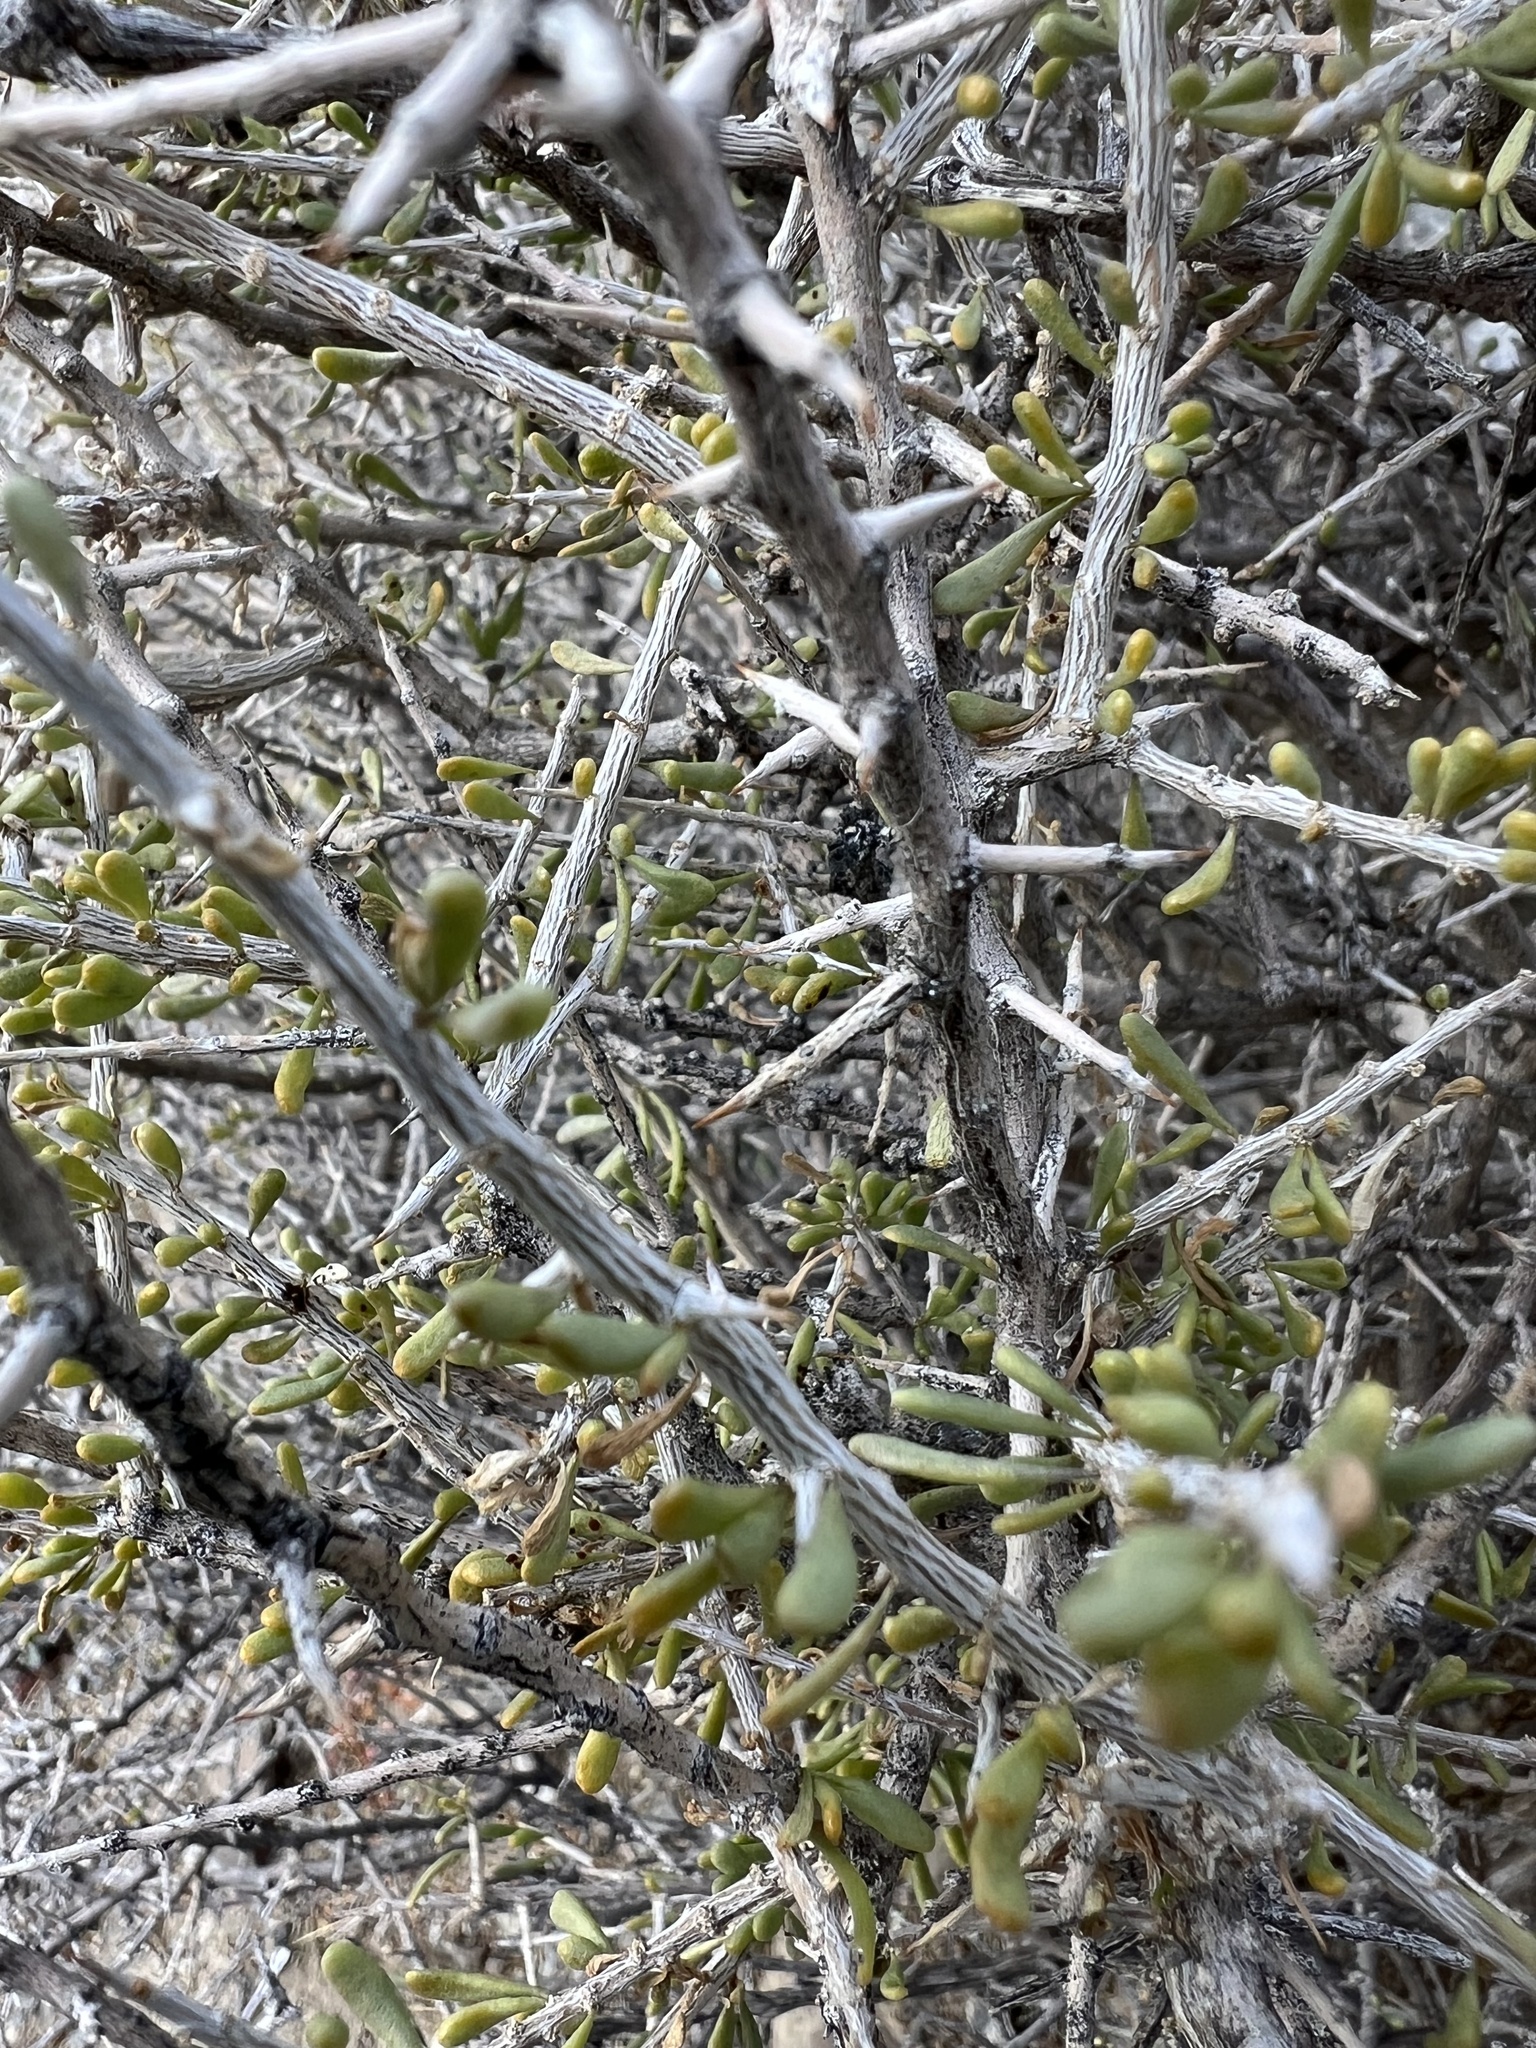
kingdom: Plantae
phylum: Tracheophyta
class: Magnoliopsida
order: Solanales
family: Solanaceae
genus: Lycium
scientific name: Lycium andersonii
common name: Water-jacket
